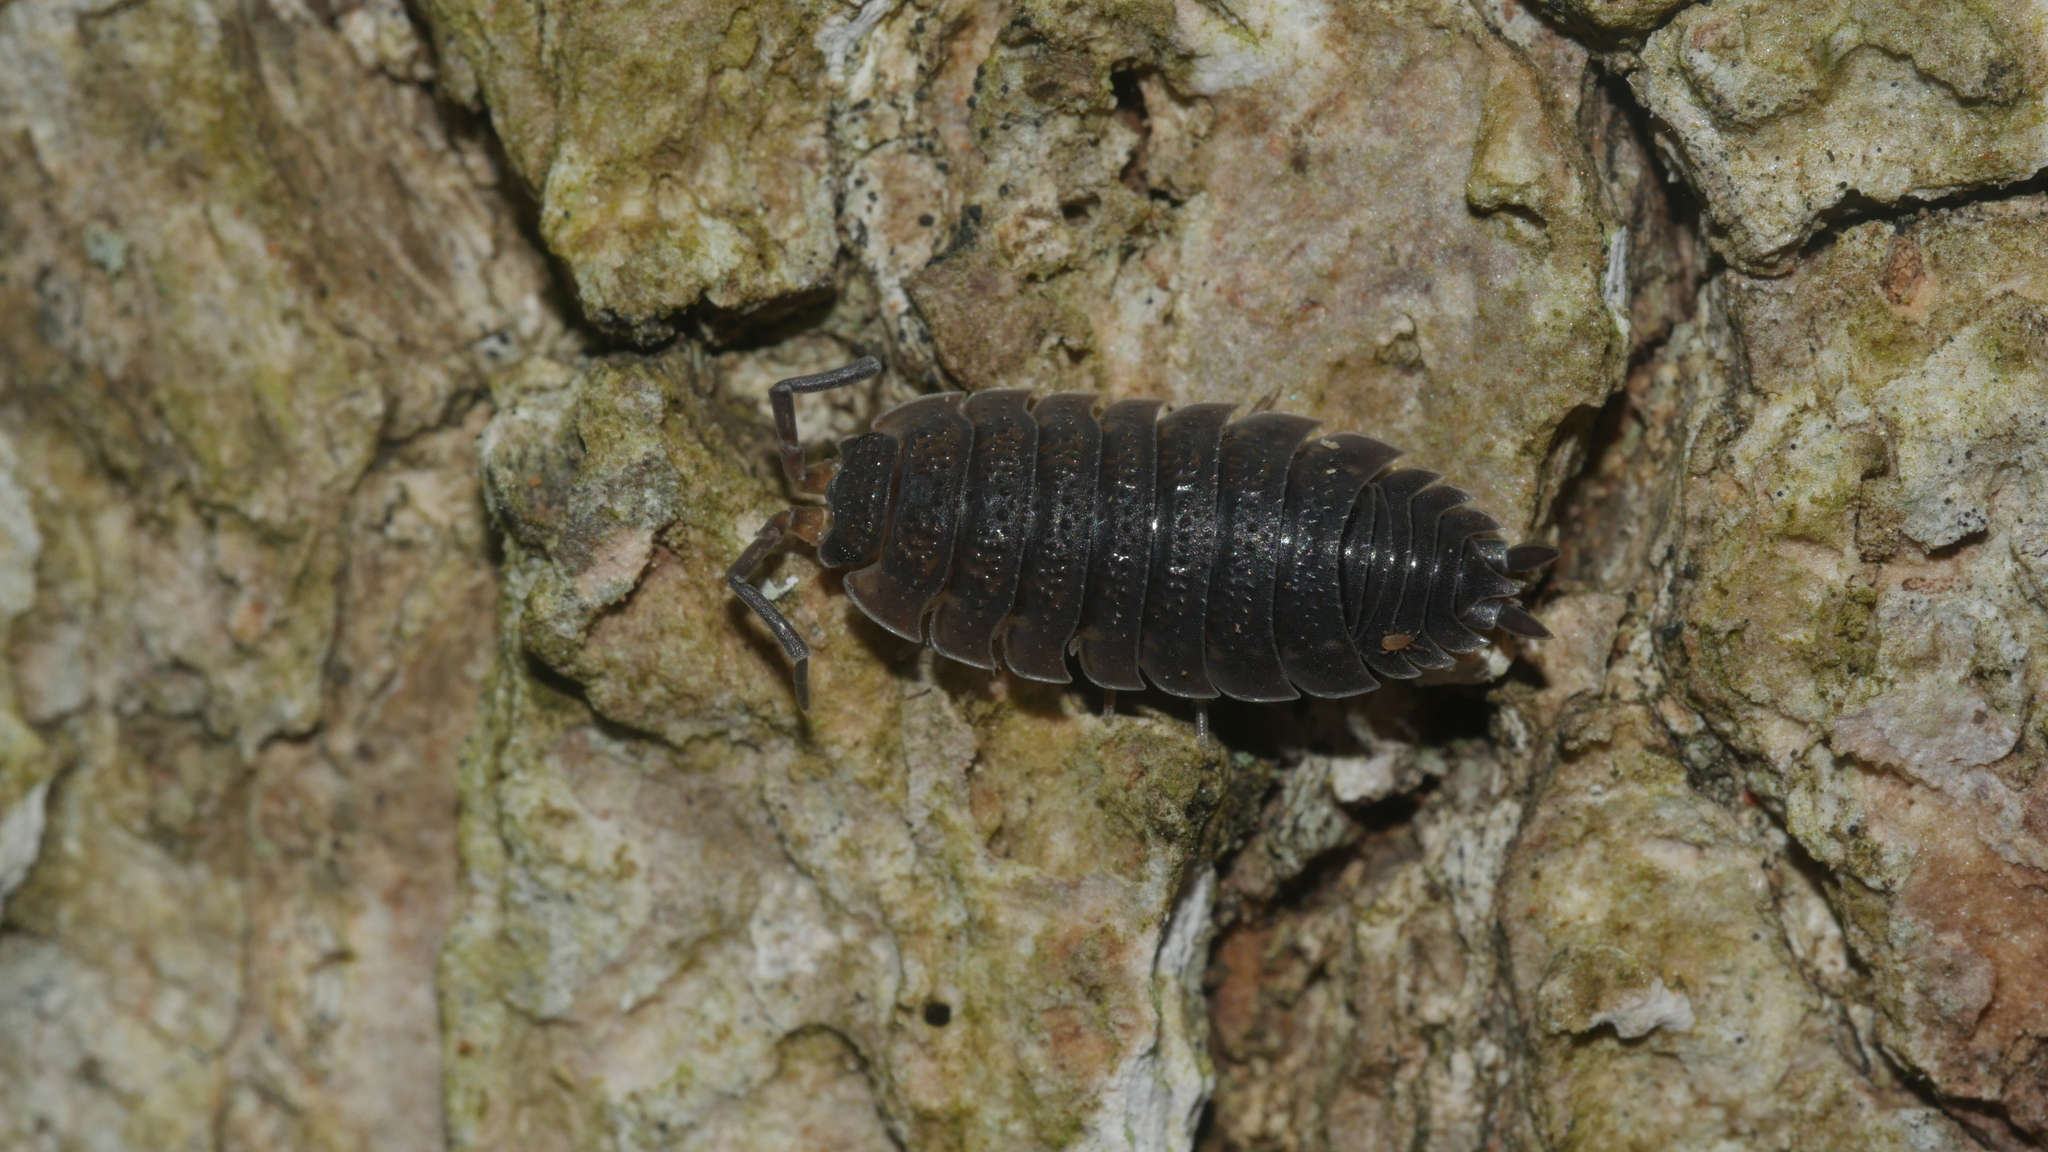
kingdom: Animalia
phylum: Arthropoda
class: Malacostraca
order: Isopoda
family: Porcellionidae
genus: Porcellio
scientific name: Porcellio scaber
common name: Common rough woodlouse
